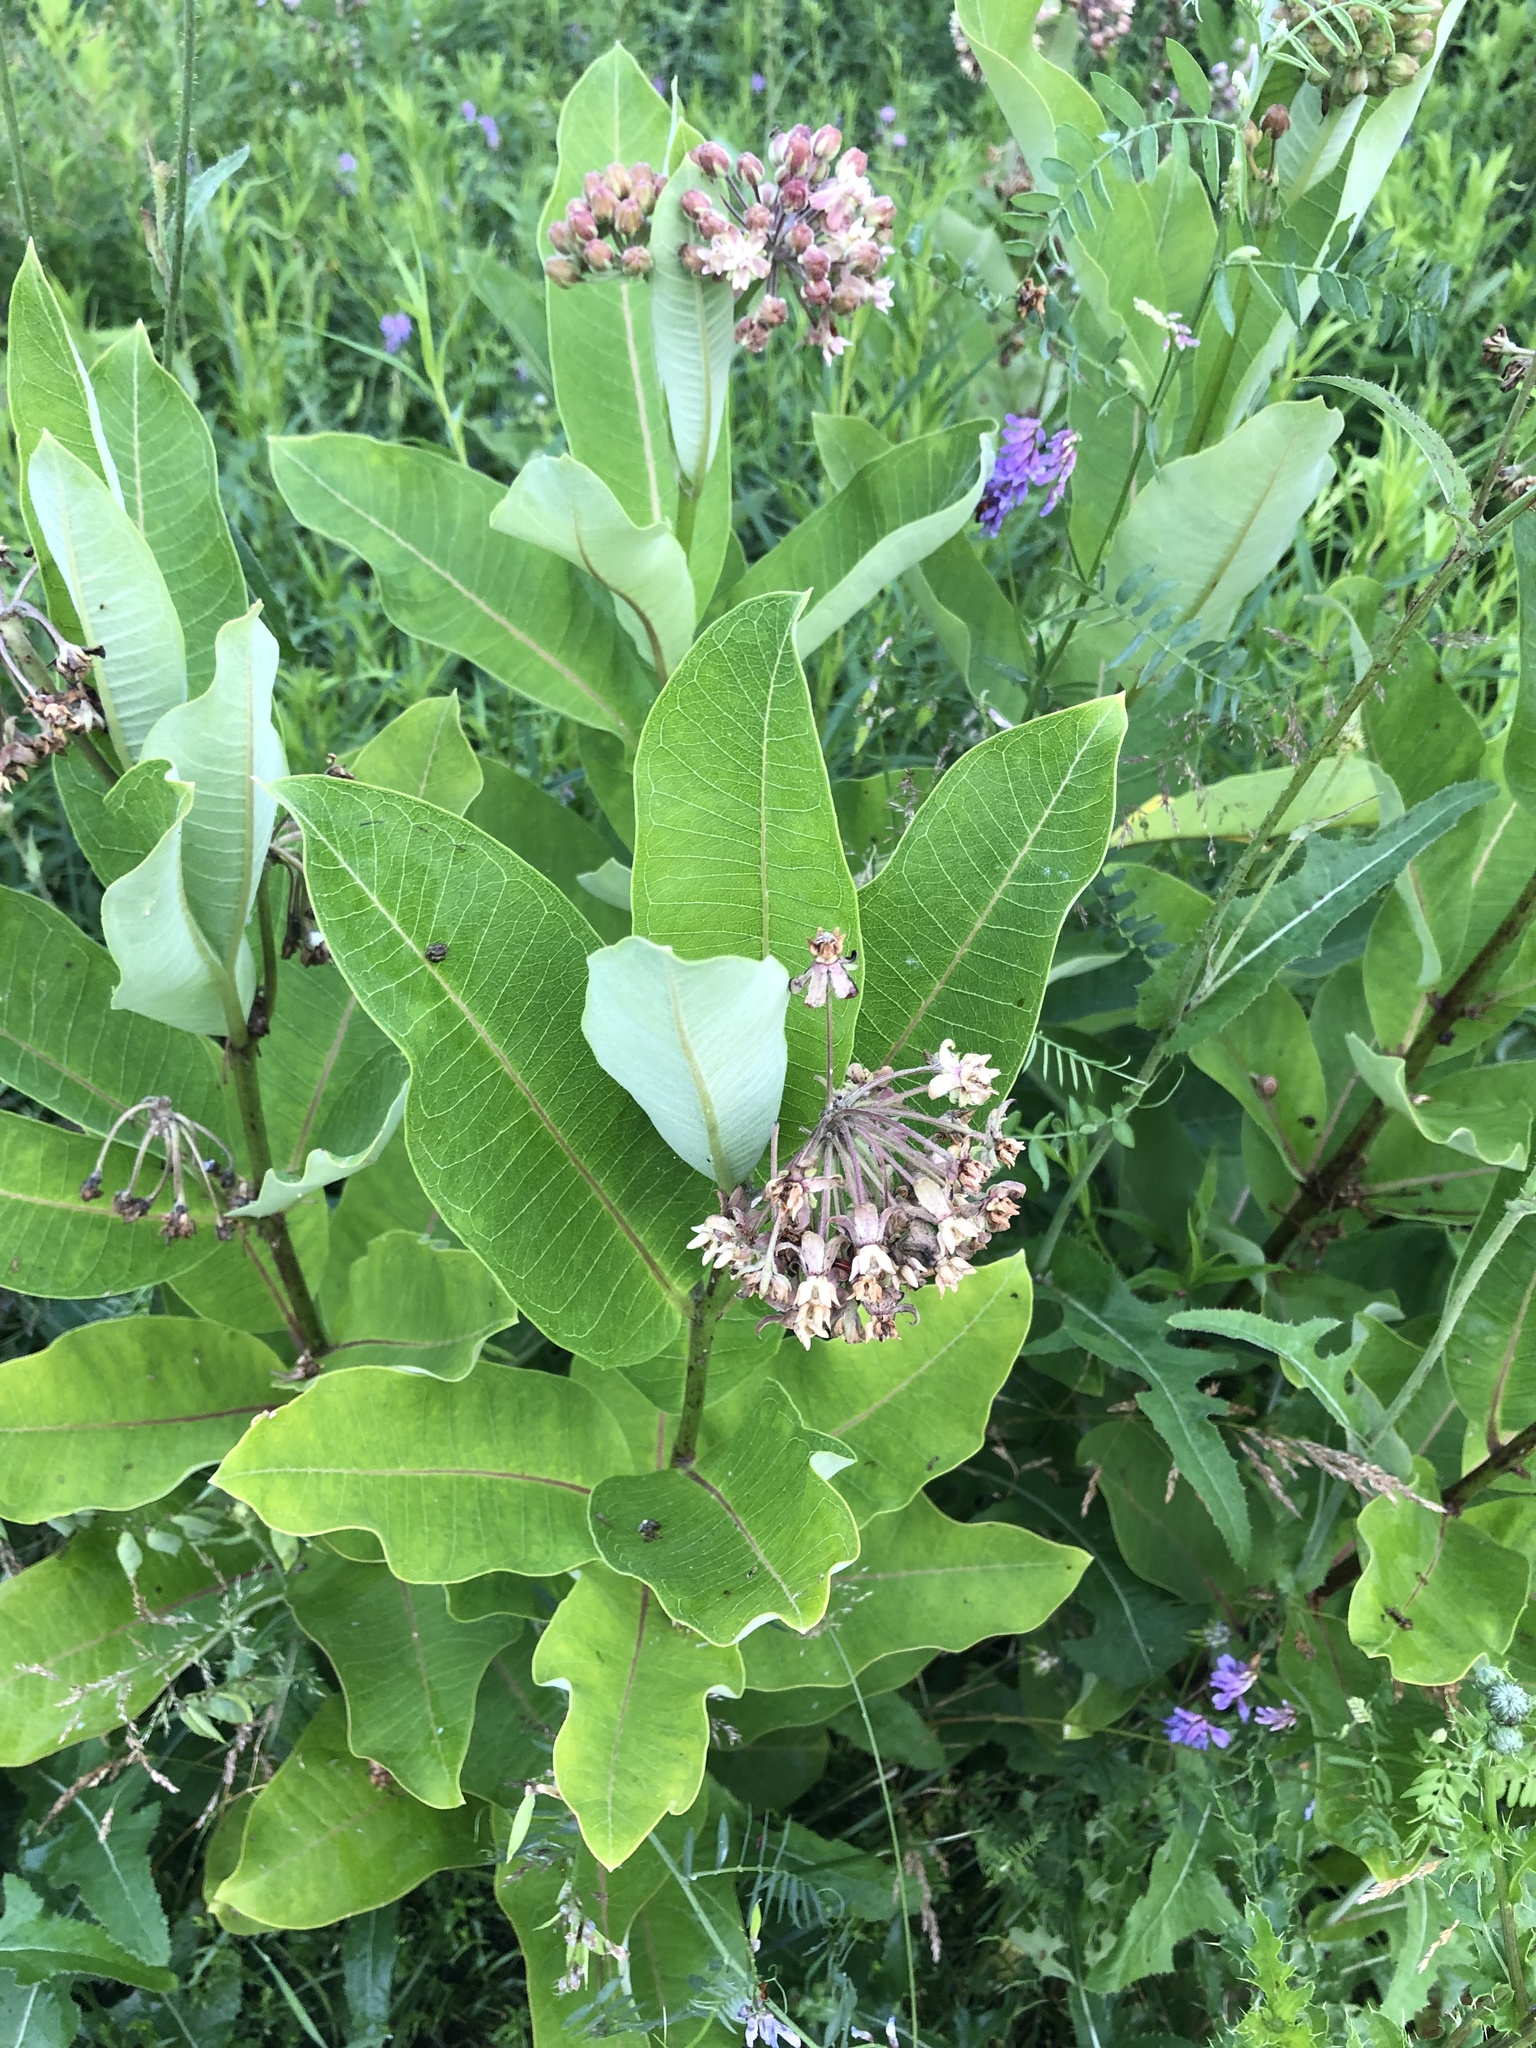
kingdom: Plantae
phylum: Tracheophyta
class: Magnoliopsida
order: Gentianales
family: Apocynaceae
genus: Asclepias
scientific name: Asclepias syriaca
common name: Common milkweed
